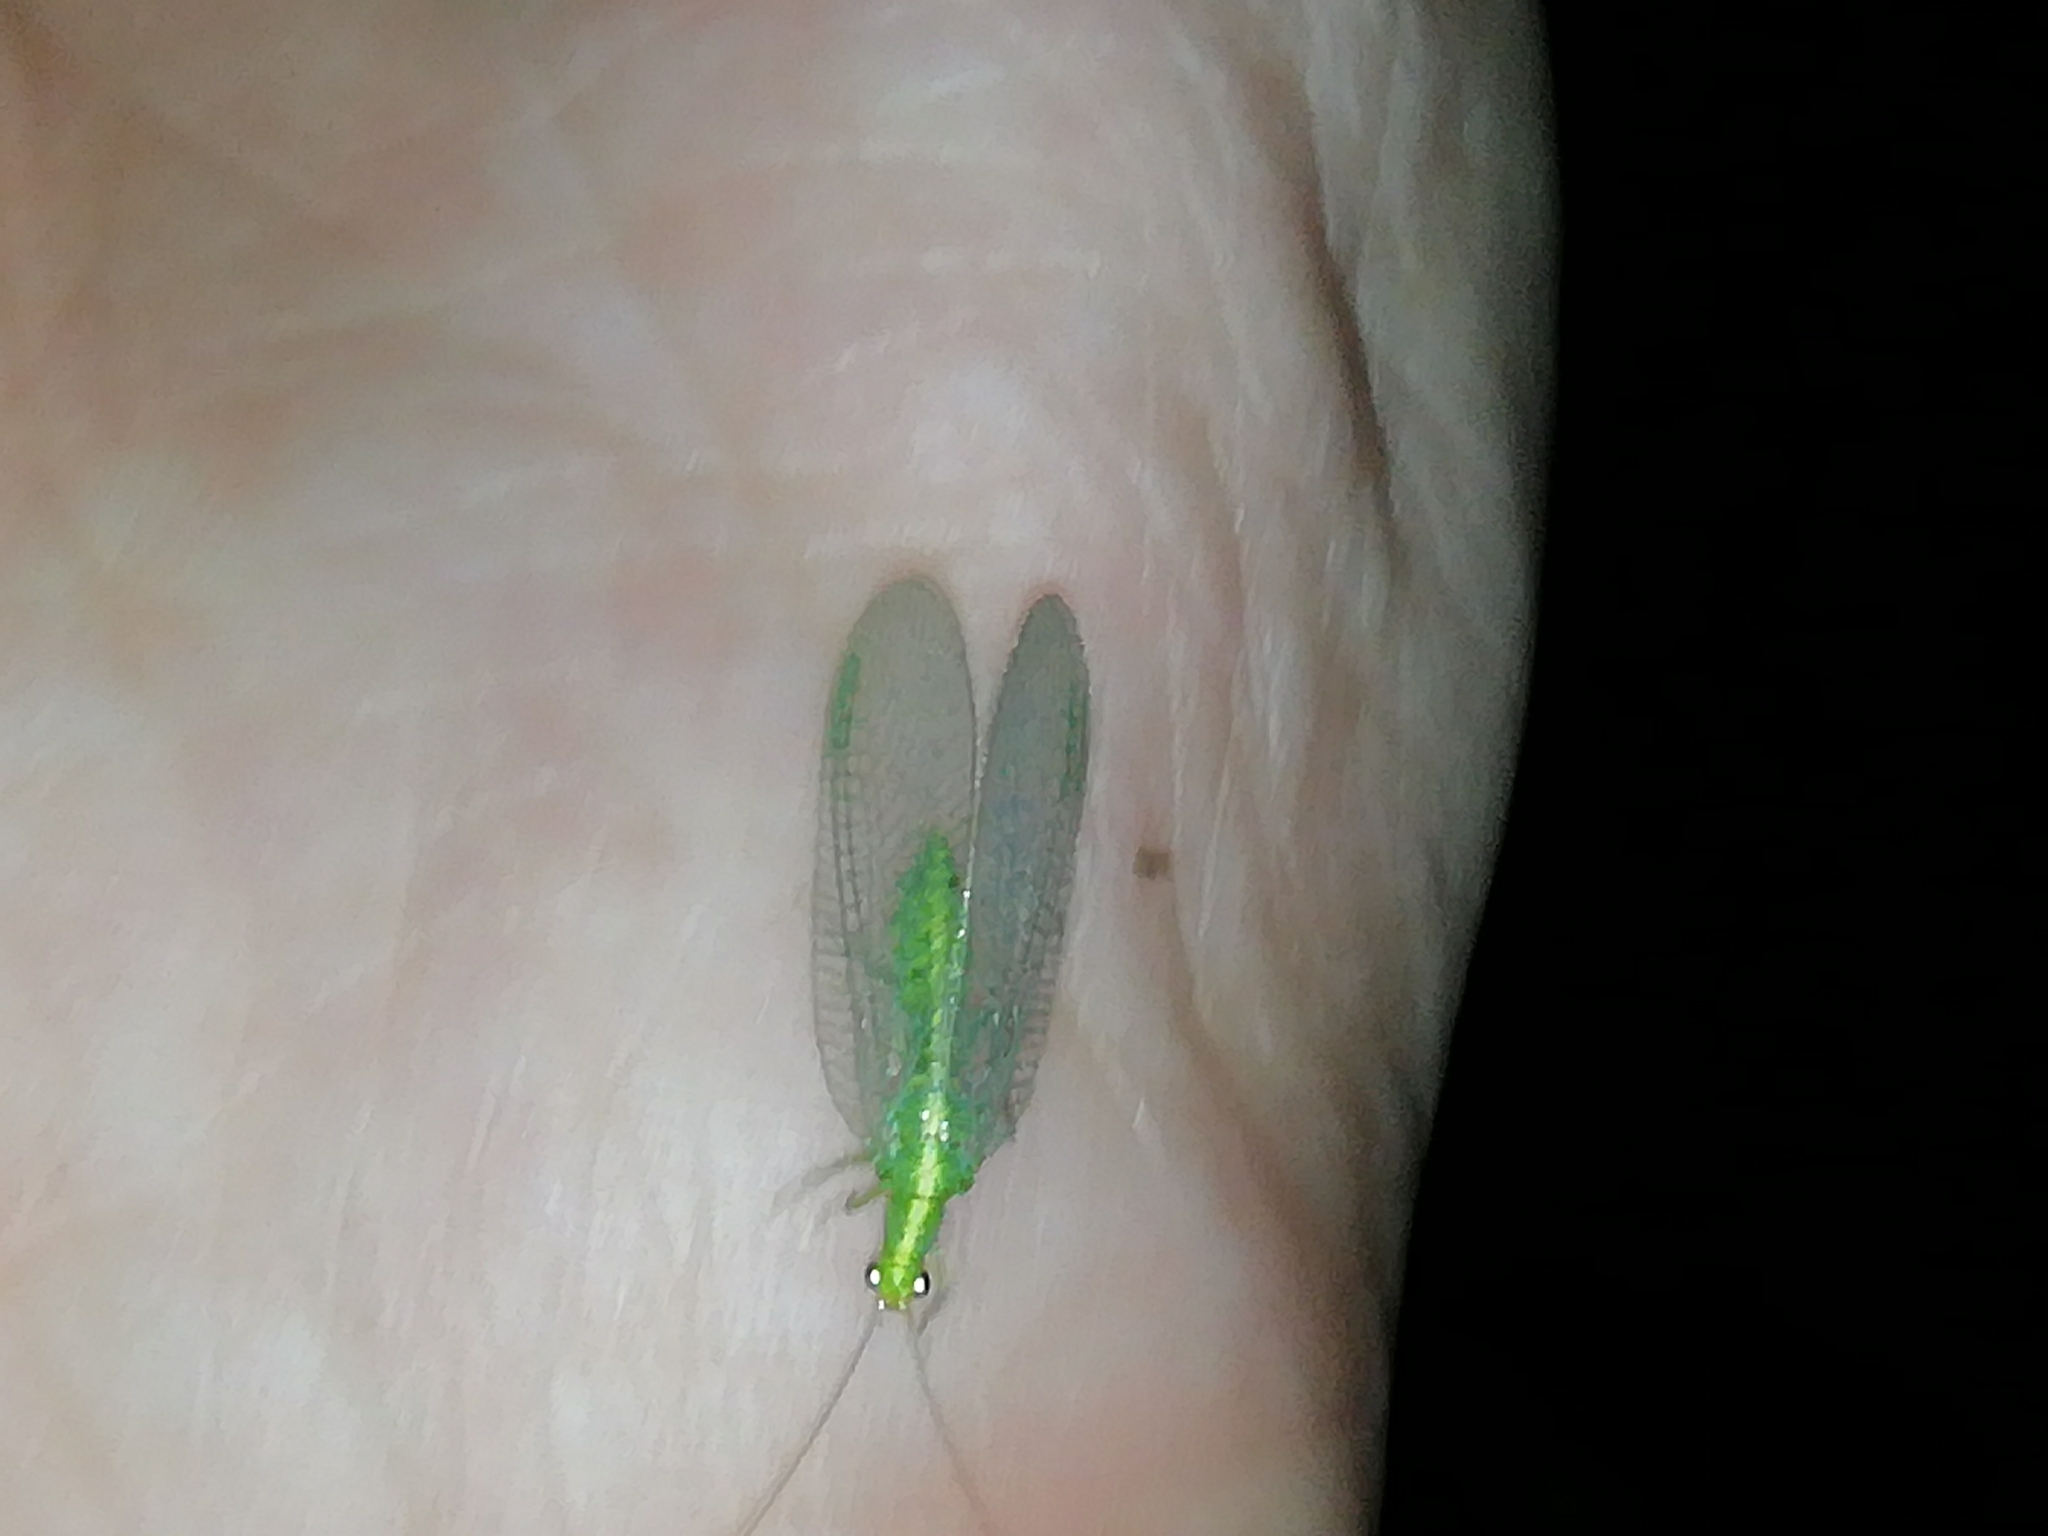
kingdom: Animalia
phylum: Arthropoda
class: Insecta
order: Neuroptera
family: Chrysopidae
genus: Chrysoperla
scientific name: Chrysoperla
